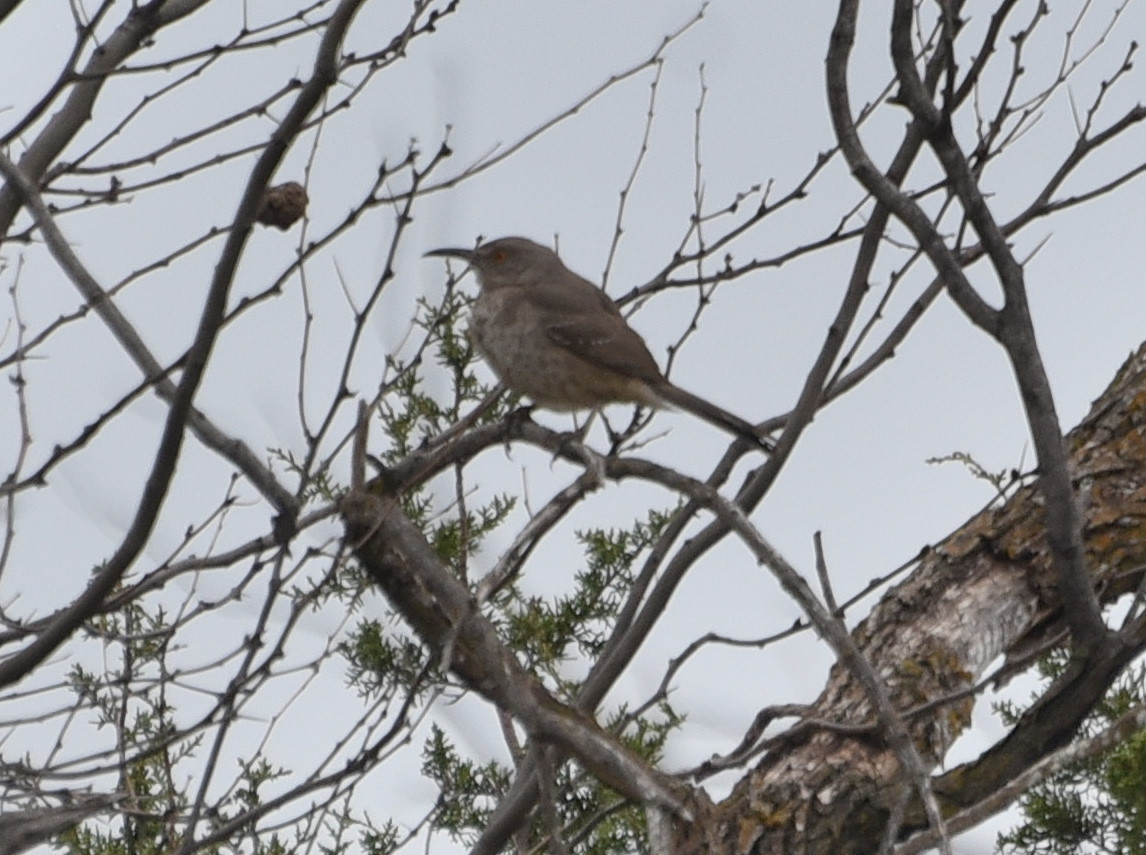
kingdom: Animalia
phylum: Chordata
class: Aves
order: Passeriformes
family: Mimidae
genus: Toxostoma
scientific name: Toxostoma curvirostre
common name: Curve-billed thrasher
